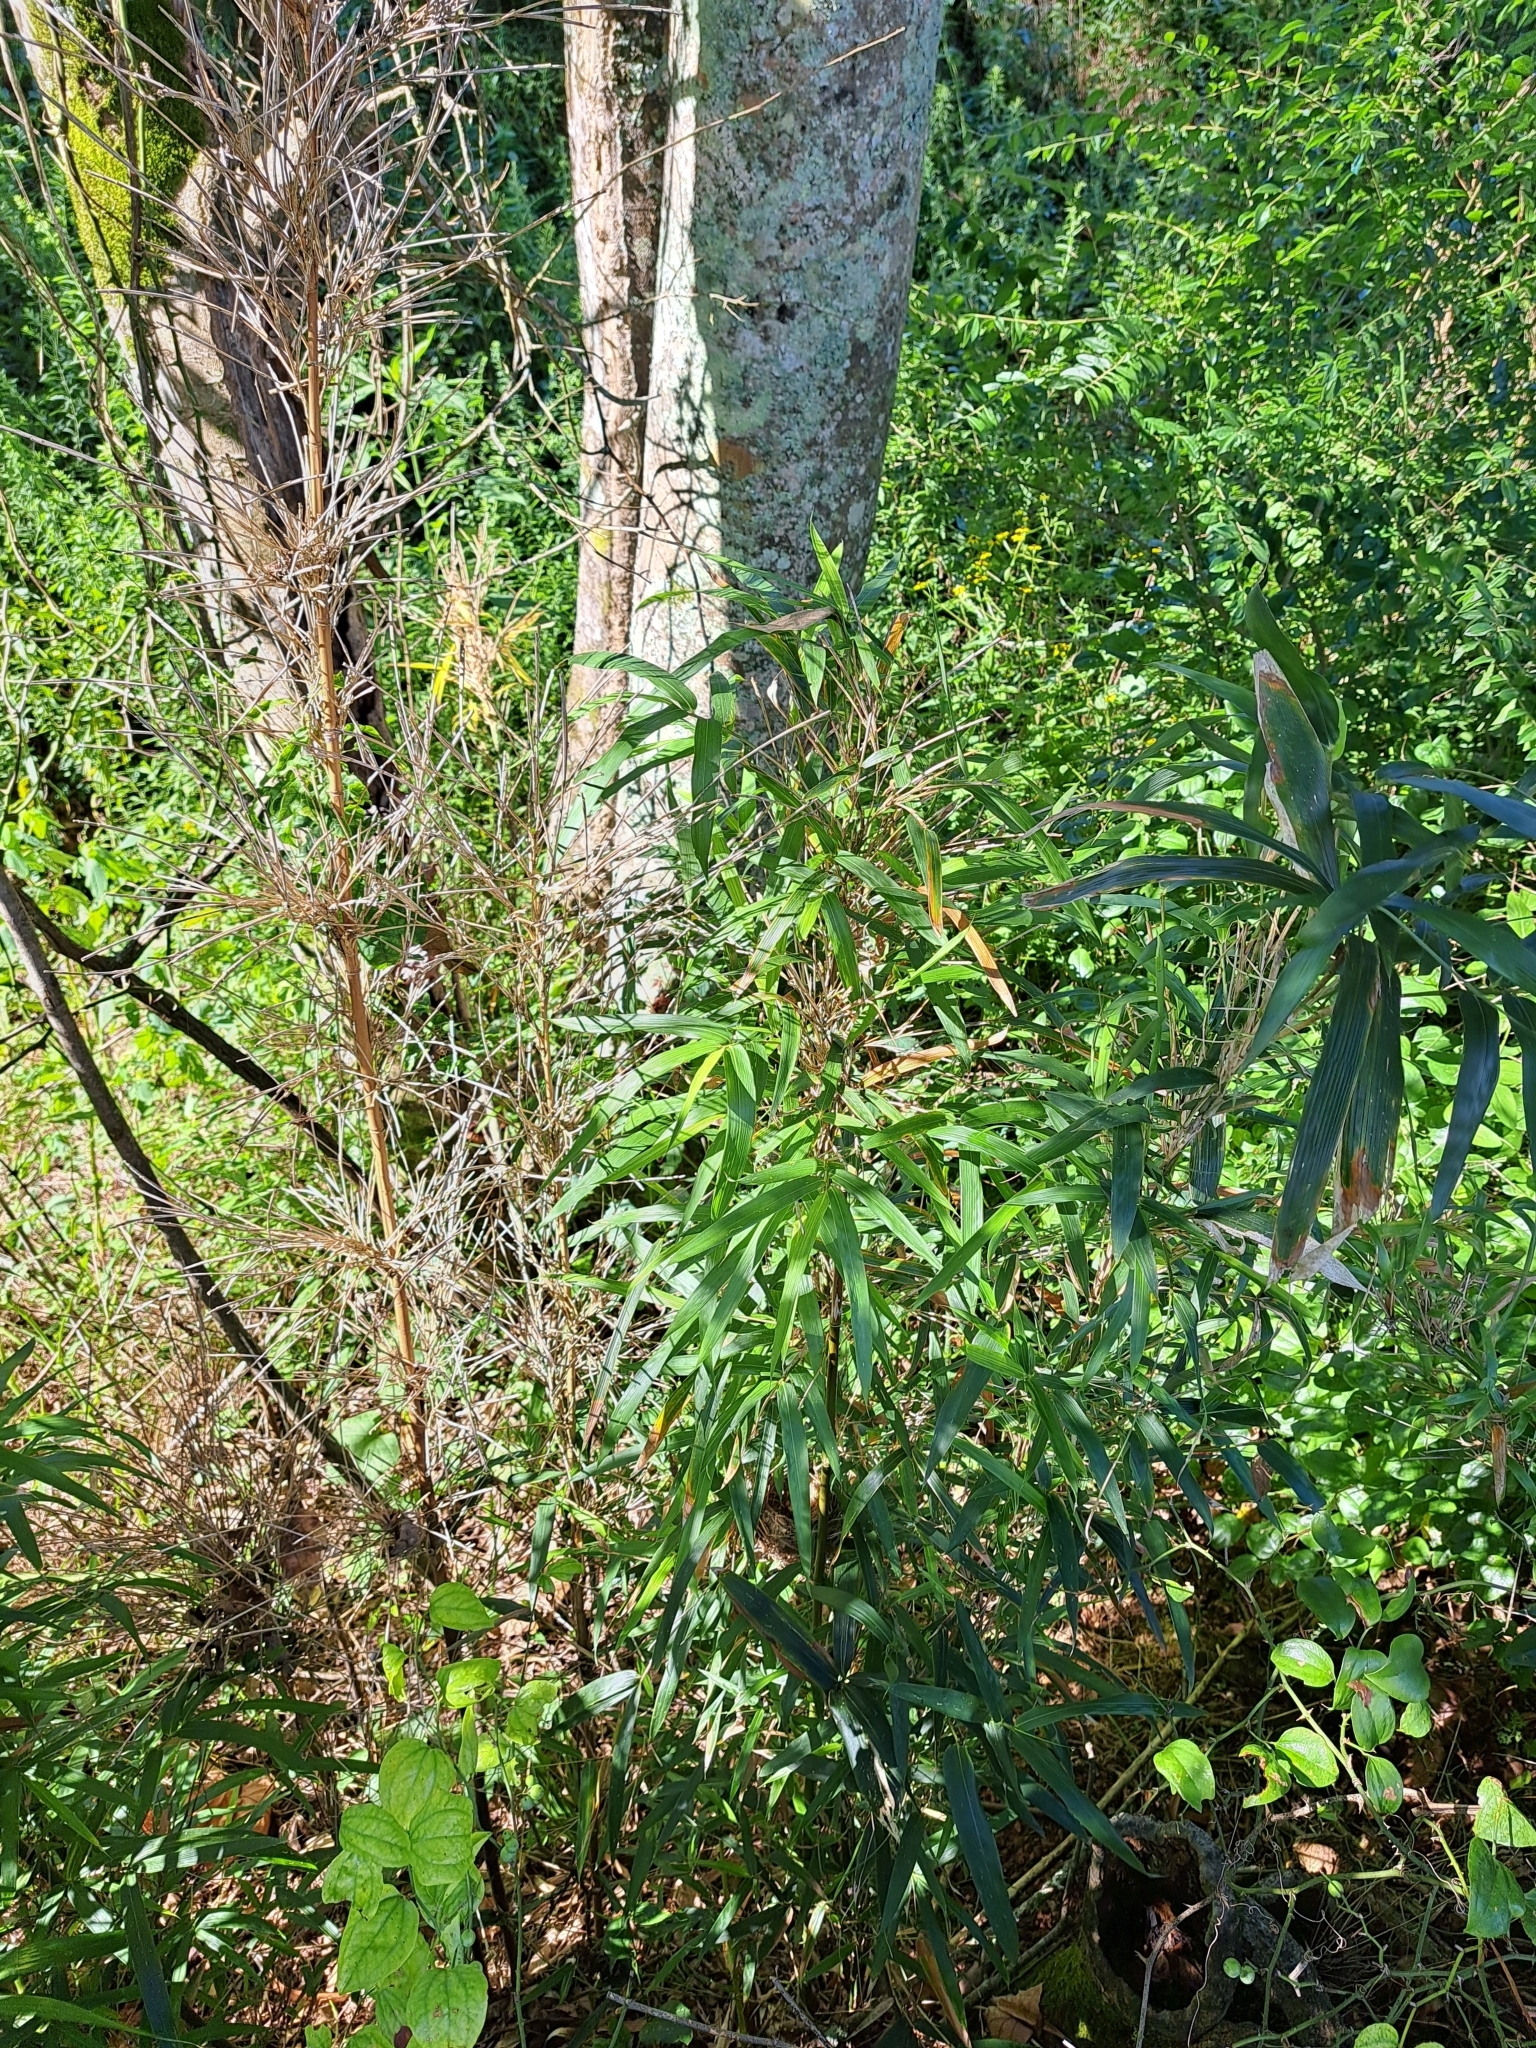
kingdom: Plantae
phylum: Tracheophyta
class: Liliopsida
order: Poales
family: Poaceae
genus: Arundinaria
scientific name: Arundinaria gigantea
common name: Giant cane
